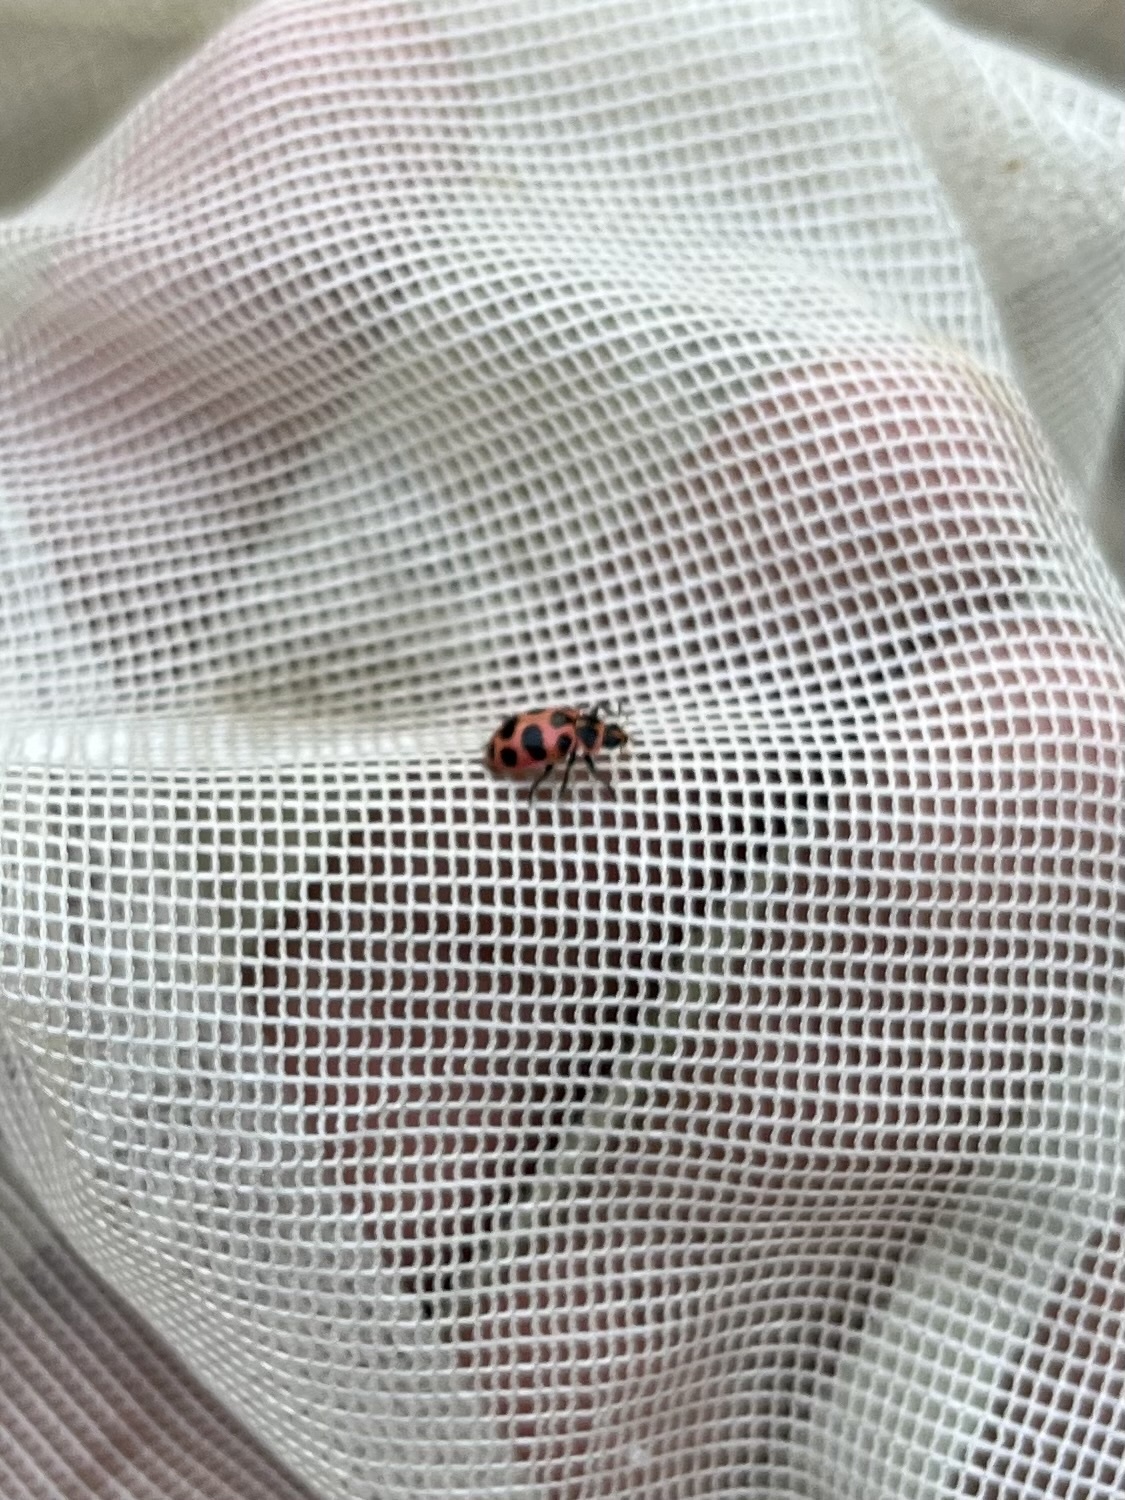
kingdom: Animalia
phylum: Arthropoda
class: Insecta
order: Coleoptera
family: Coccinellidae
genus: Coleomegilla
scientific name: Coleomegilla maculata
